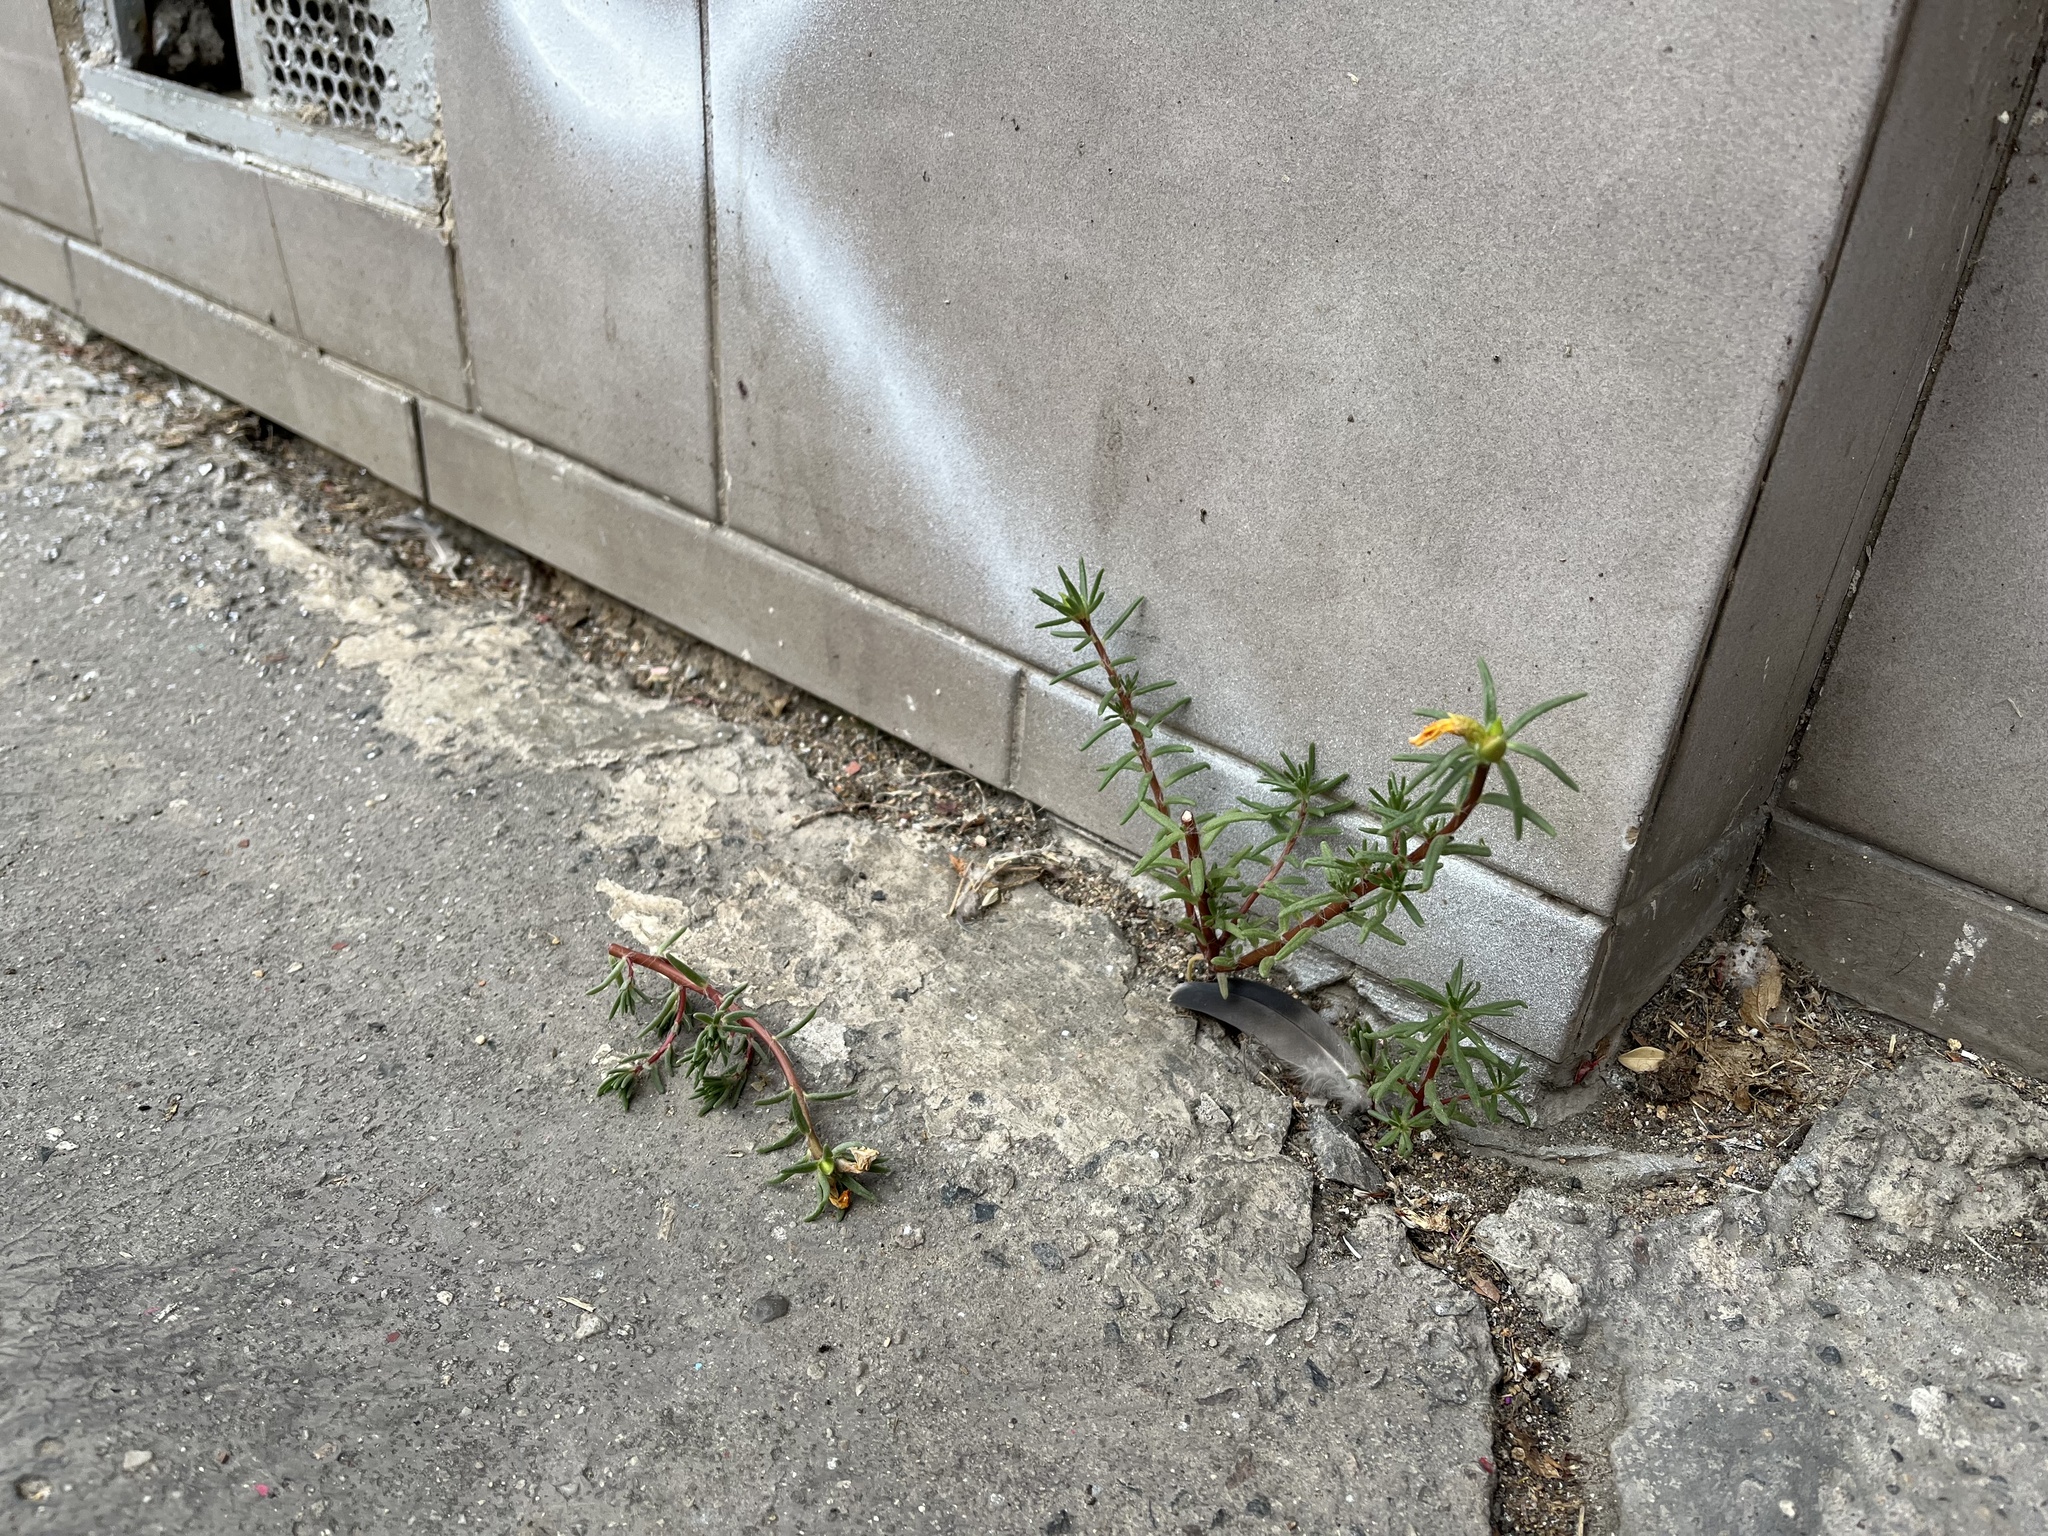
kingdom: Plantae
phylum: Tracheophyta
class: Magnoliopsida
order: Caryophyllales
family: Portulacaceae
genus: Portulaca
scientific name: Portulaca grandiflora
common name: Moss-rose
